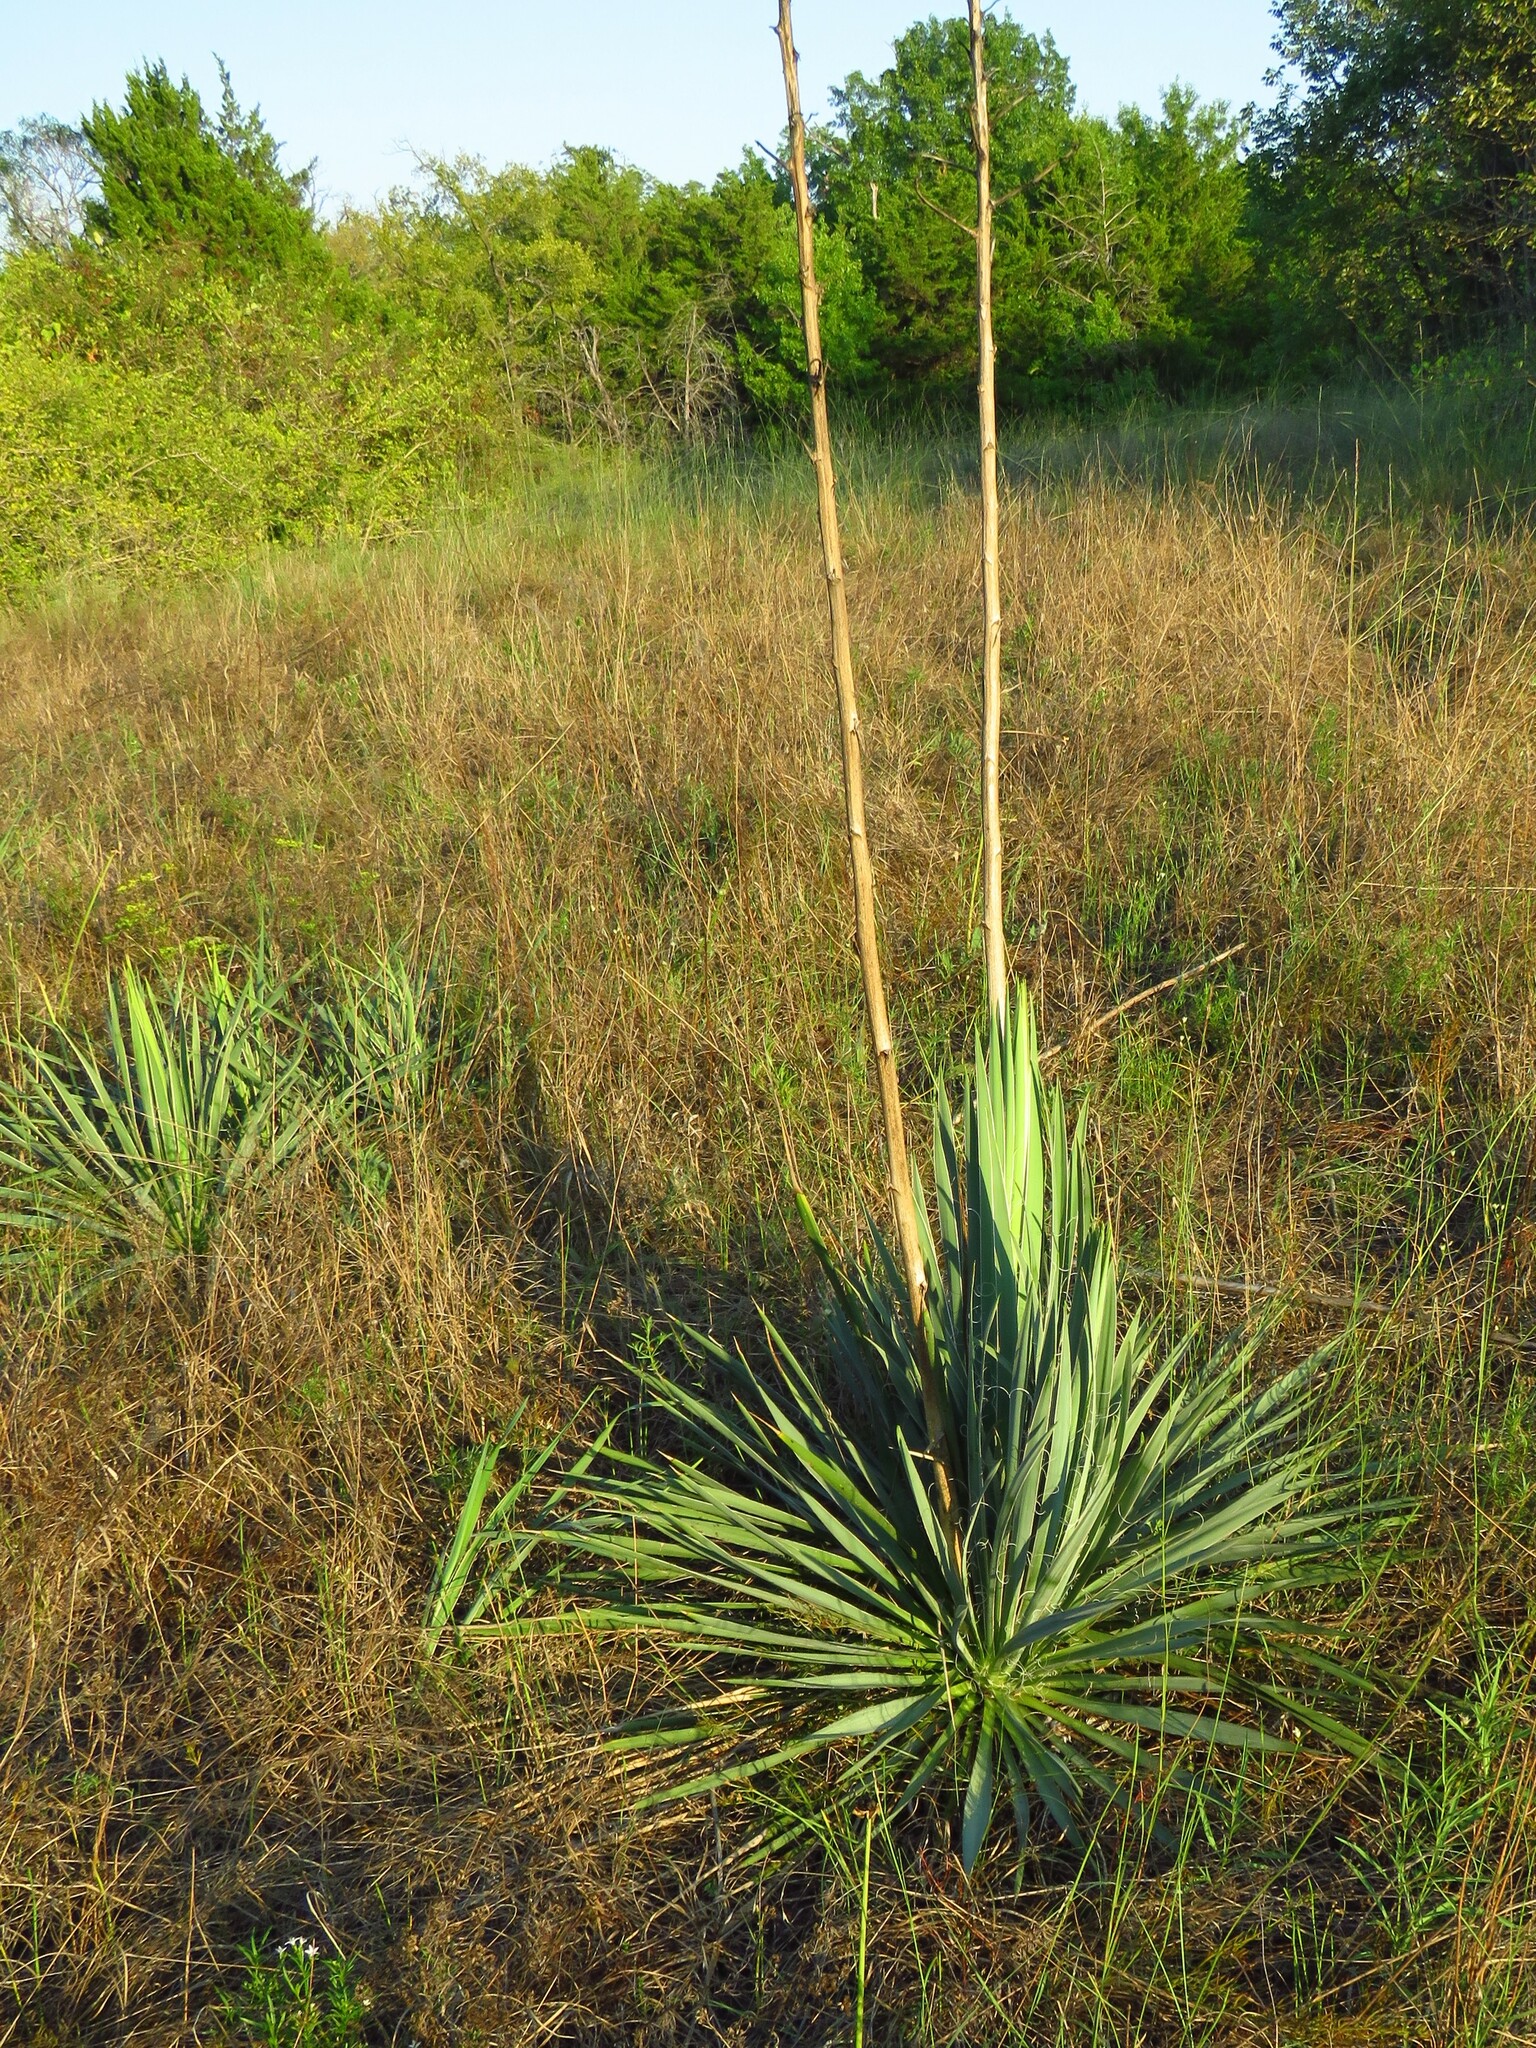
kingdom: Plantae
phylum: Tracheophyta
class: Liliopsida
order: Asparagales
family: Asparagaceae
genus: Yucca
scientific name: Yucca arkansana
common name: Arkansas yucca
